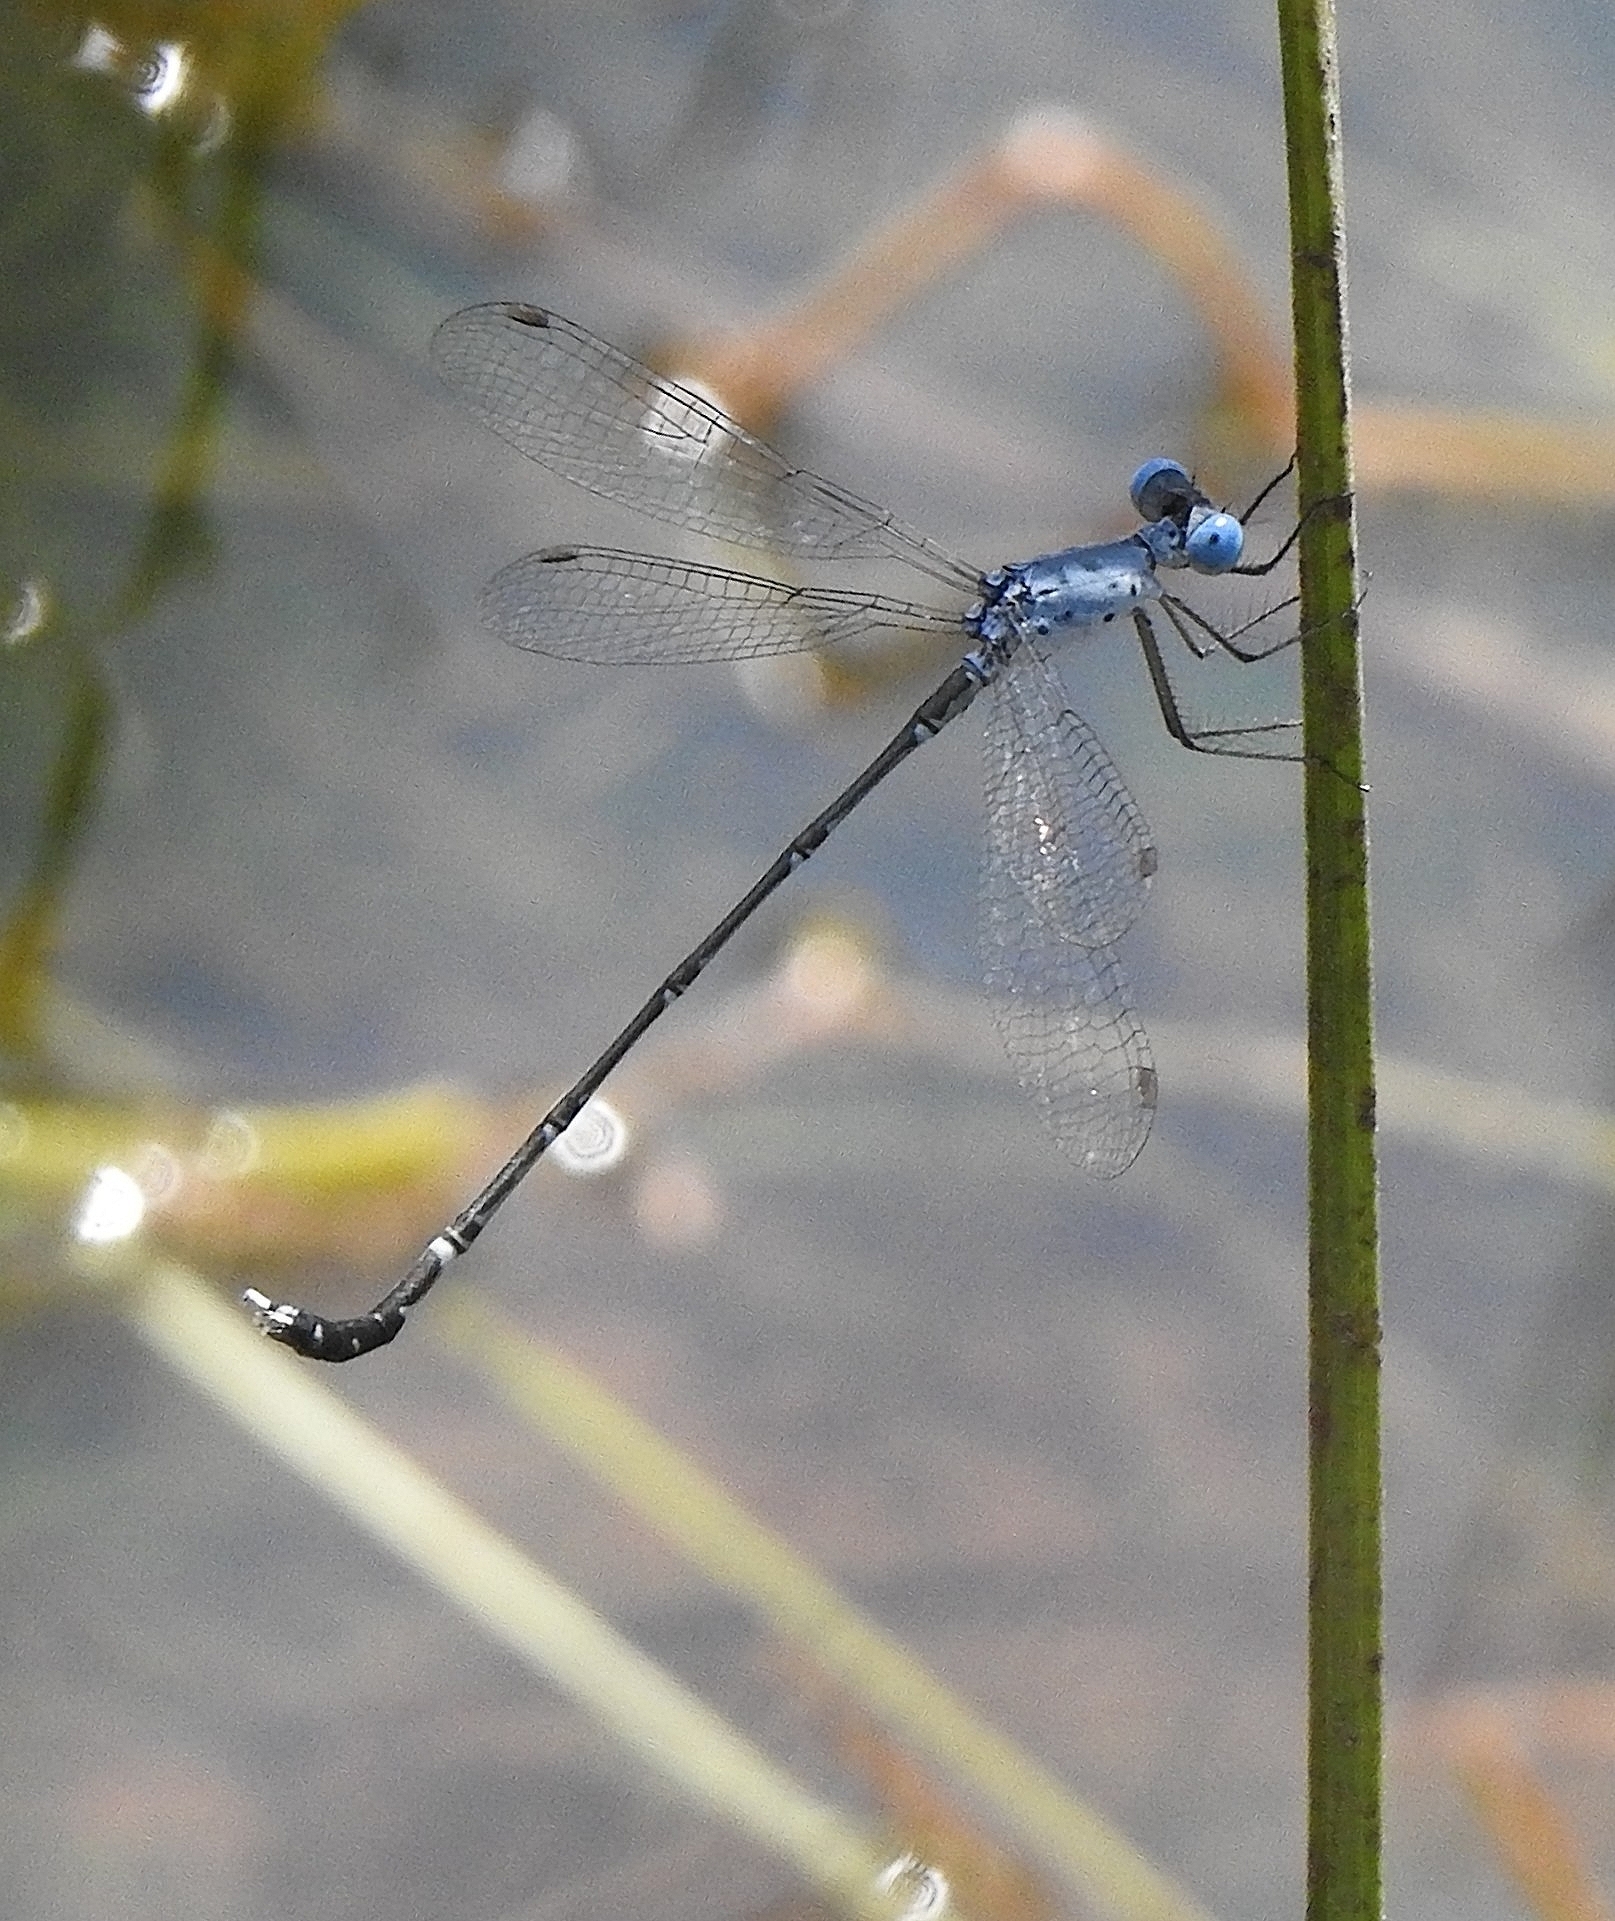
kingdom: Animalia
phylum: Arthropoda
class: Insecta
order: Odonata
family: Lestidae
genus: Lestes
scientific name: Lestes praemorsus
